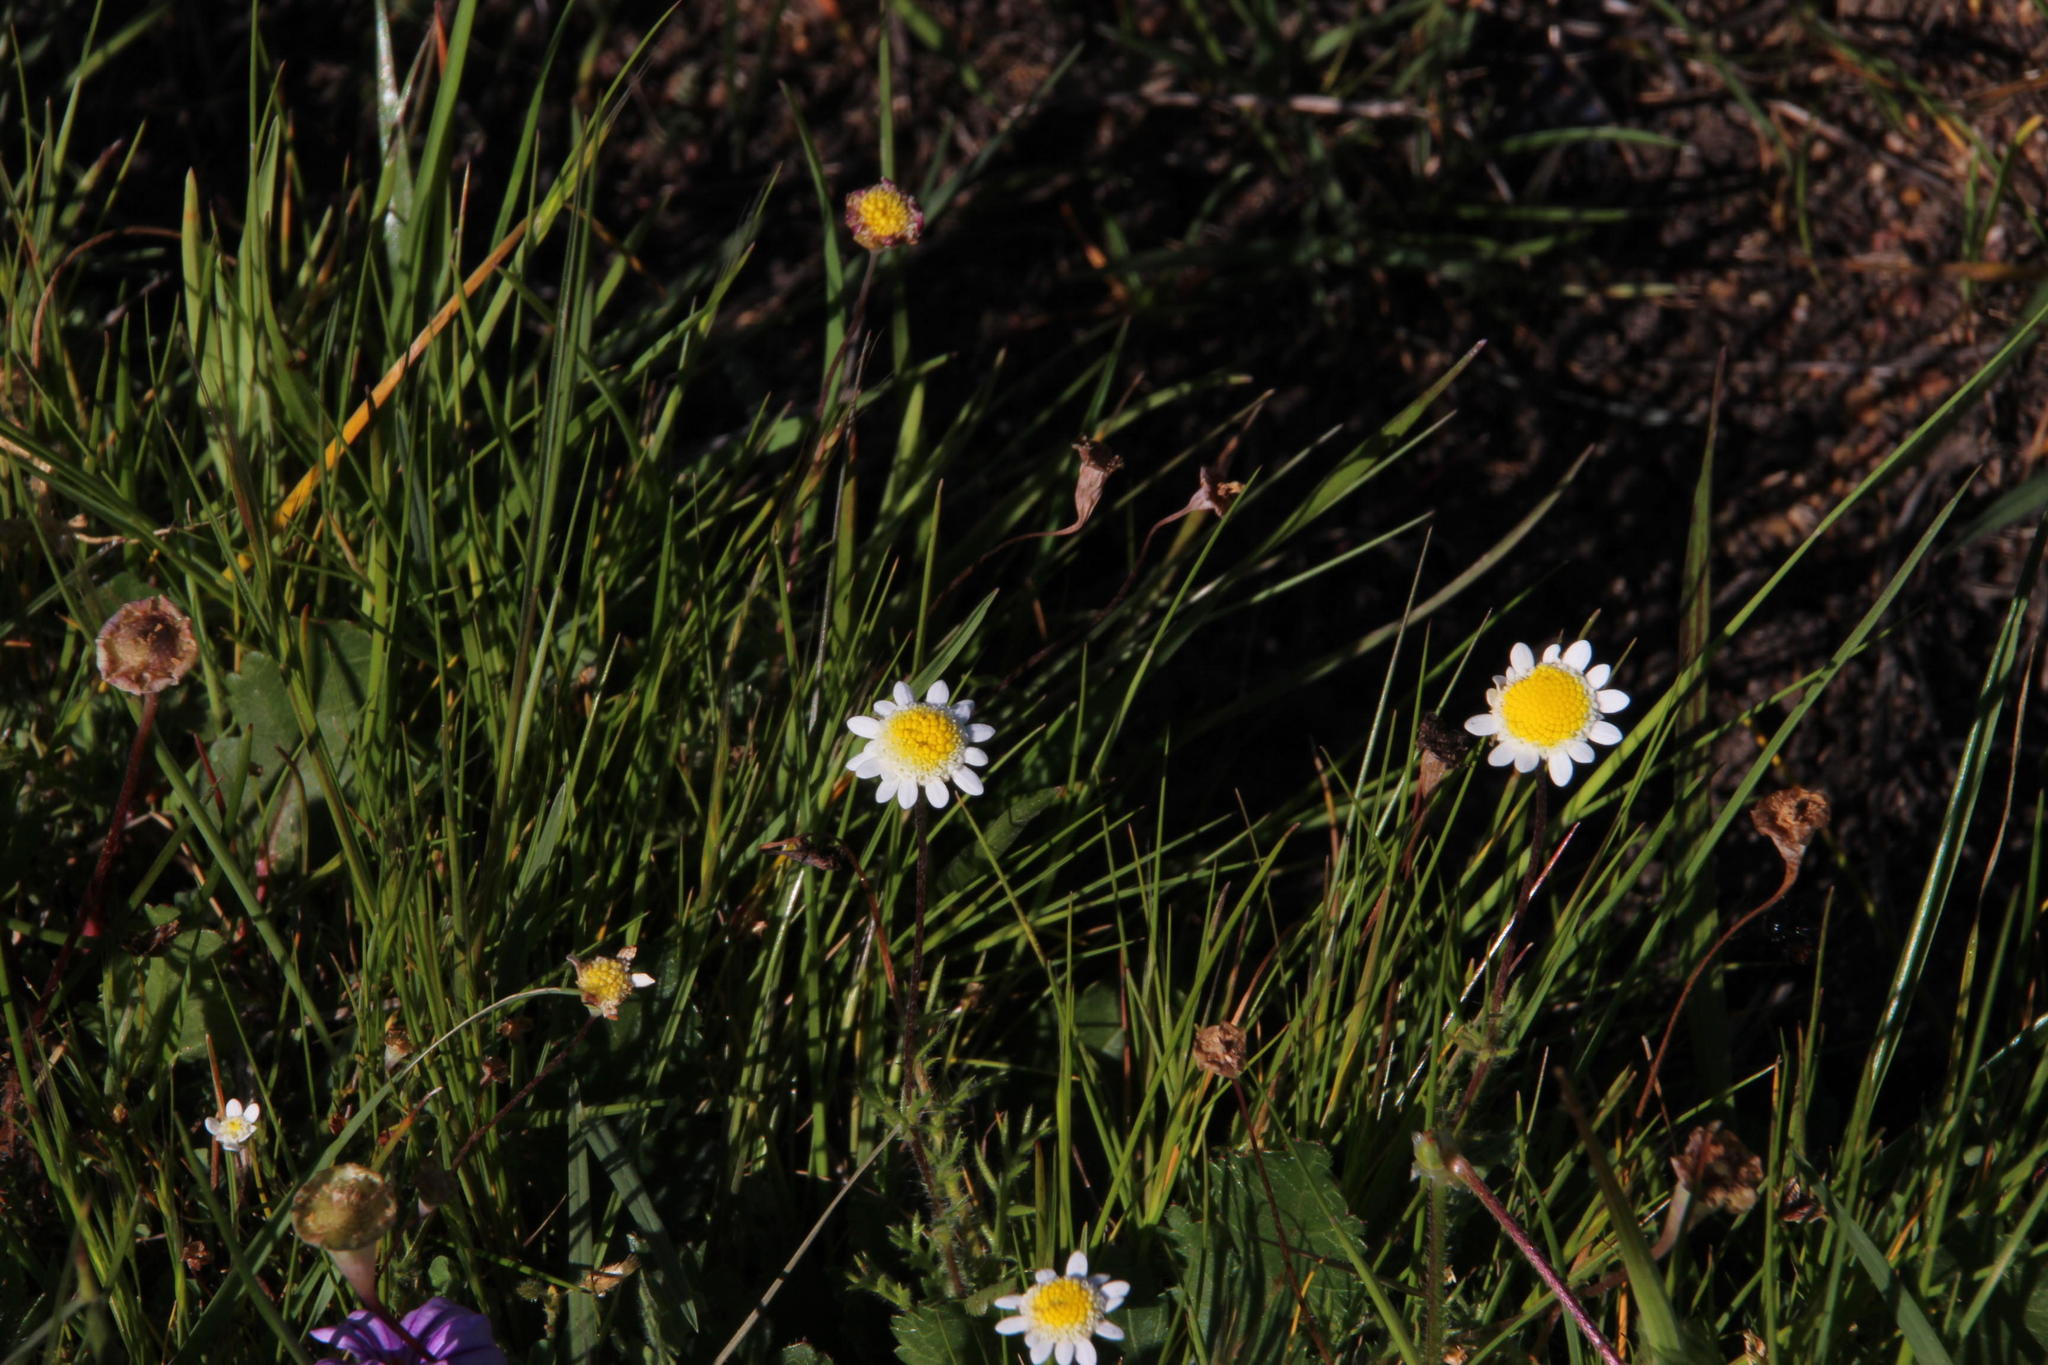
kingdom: Plantae
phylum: Tracheophyta
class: Magnoliopsida
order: Asterales
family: Asteraceae
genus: Cotula
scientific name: Cotula turbinata
